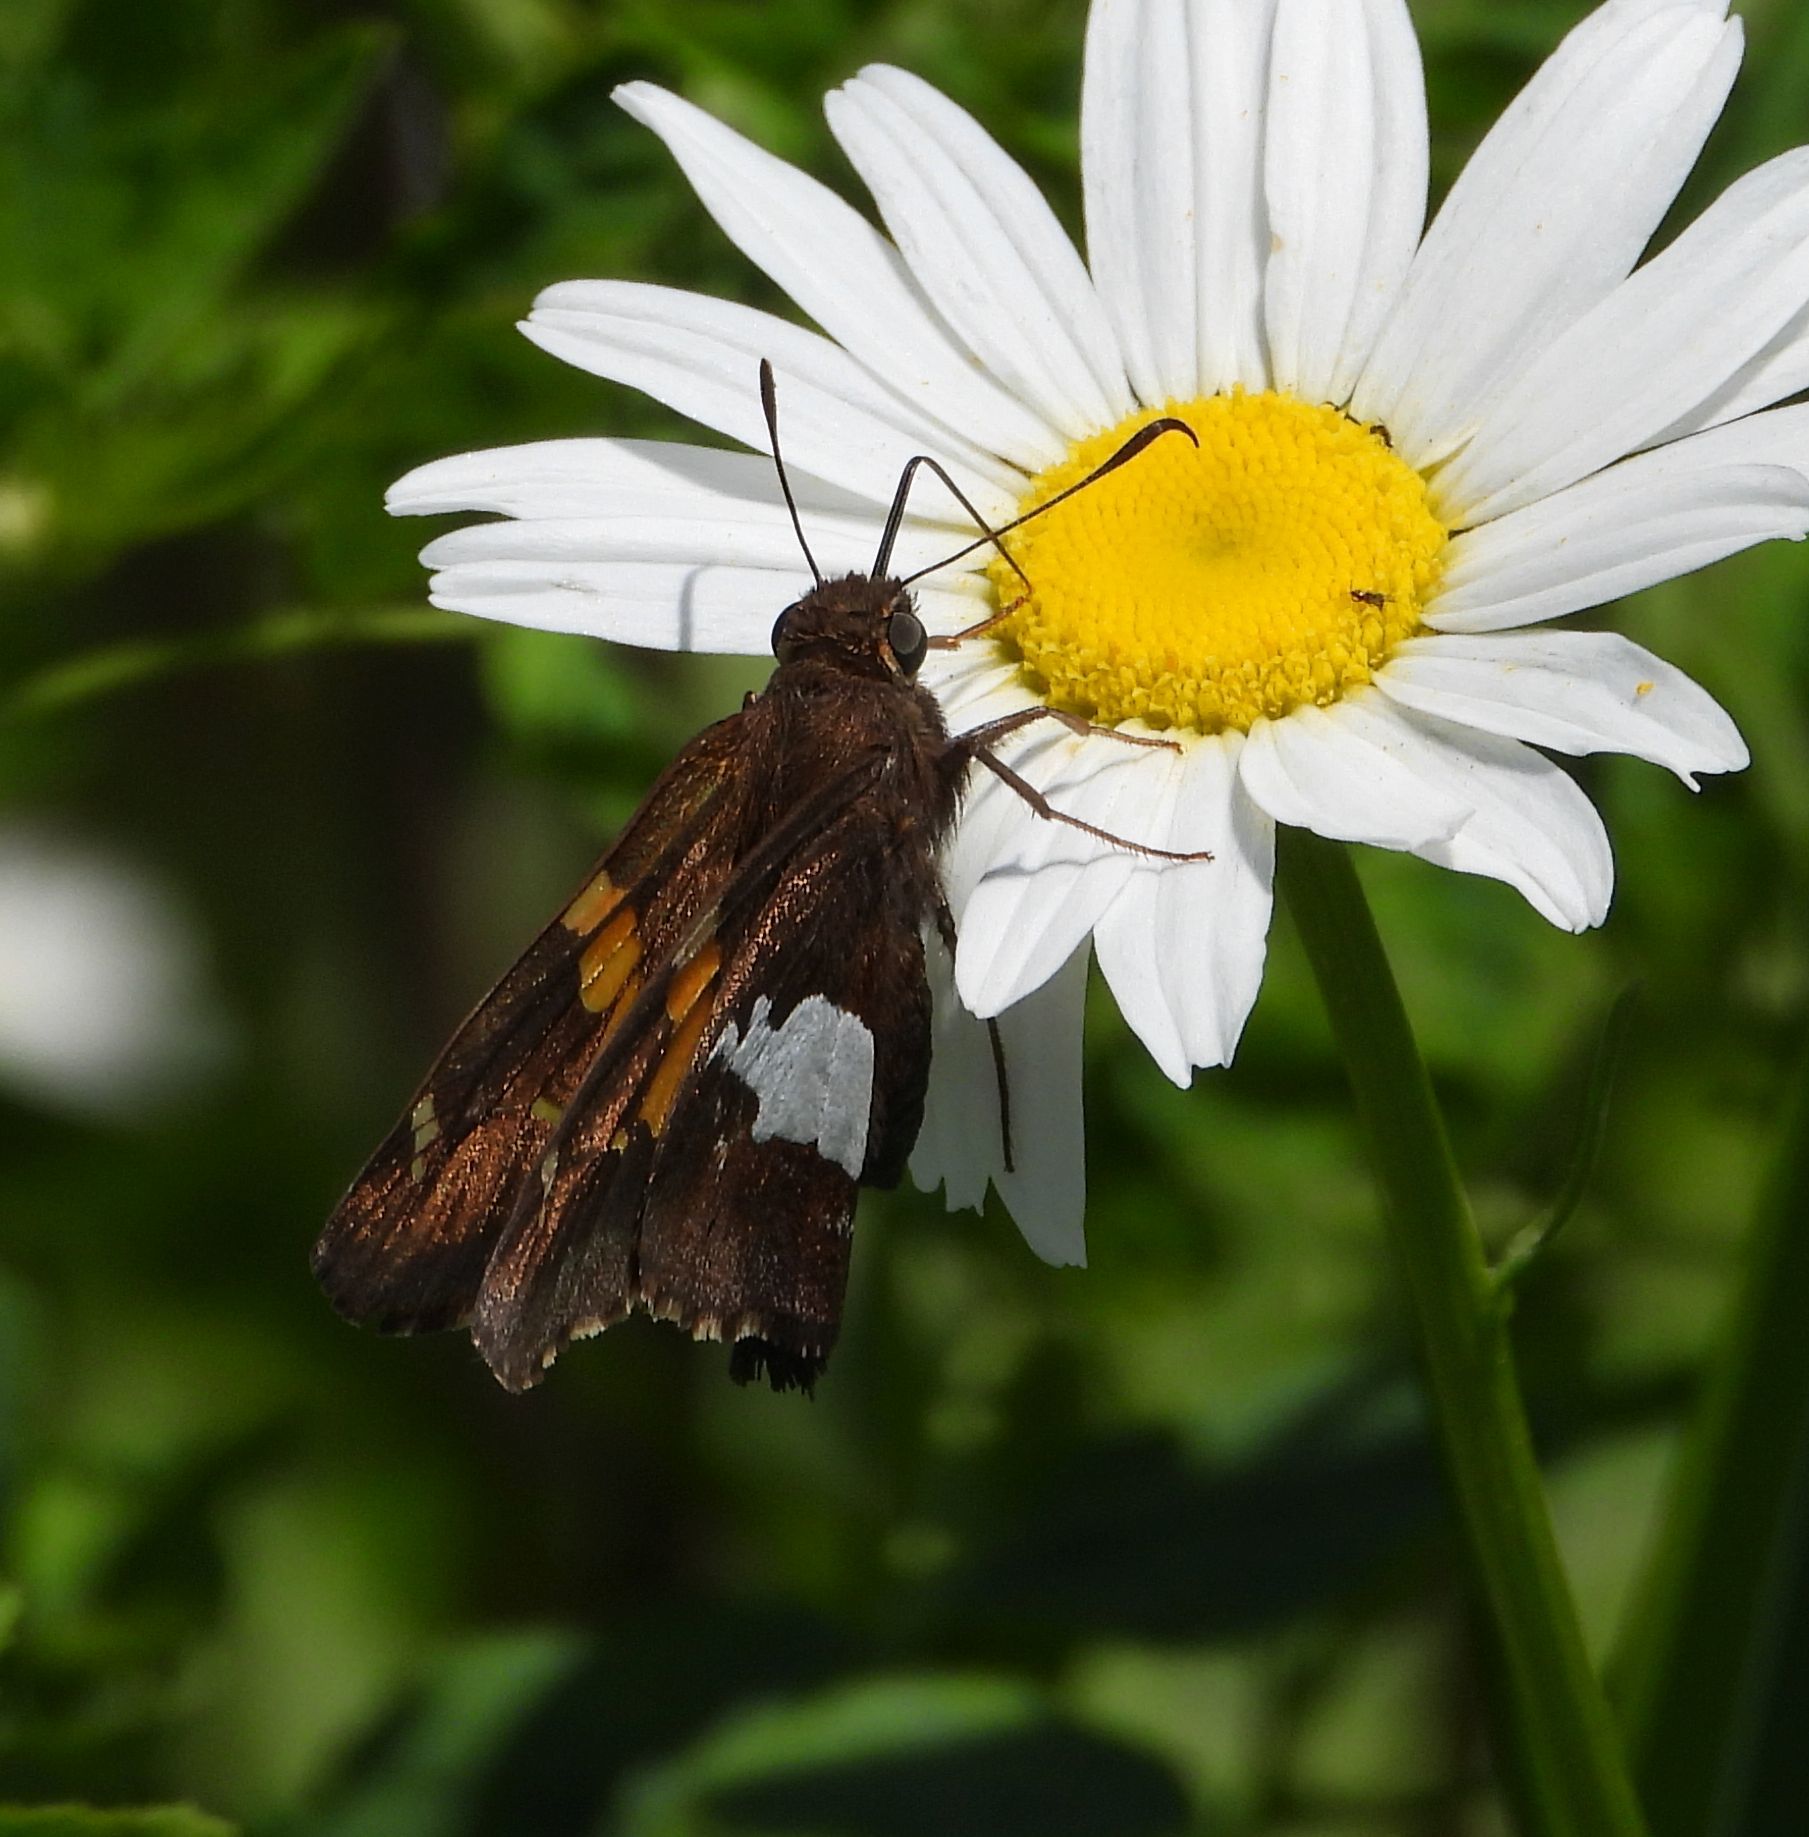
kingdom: Animalia
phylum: Arthropoda
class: Insecta
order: Lepidoptera
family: Hesperiidae
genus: Epargyreus
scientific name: Epargyreus clarus
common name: Silver-spotted skipper
